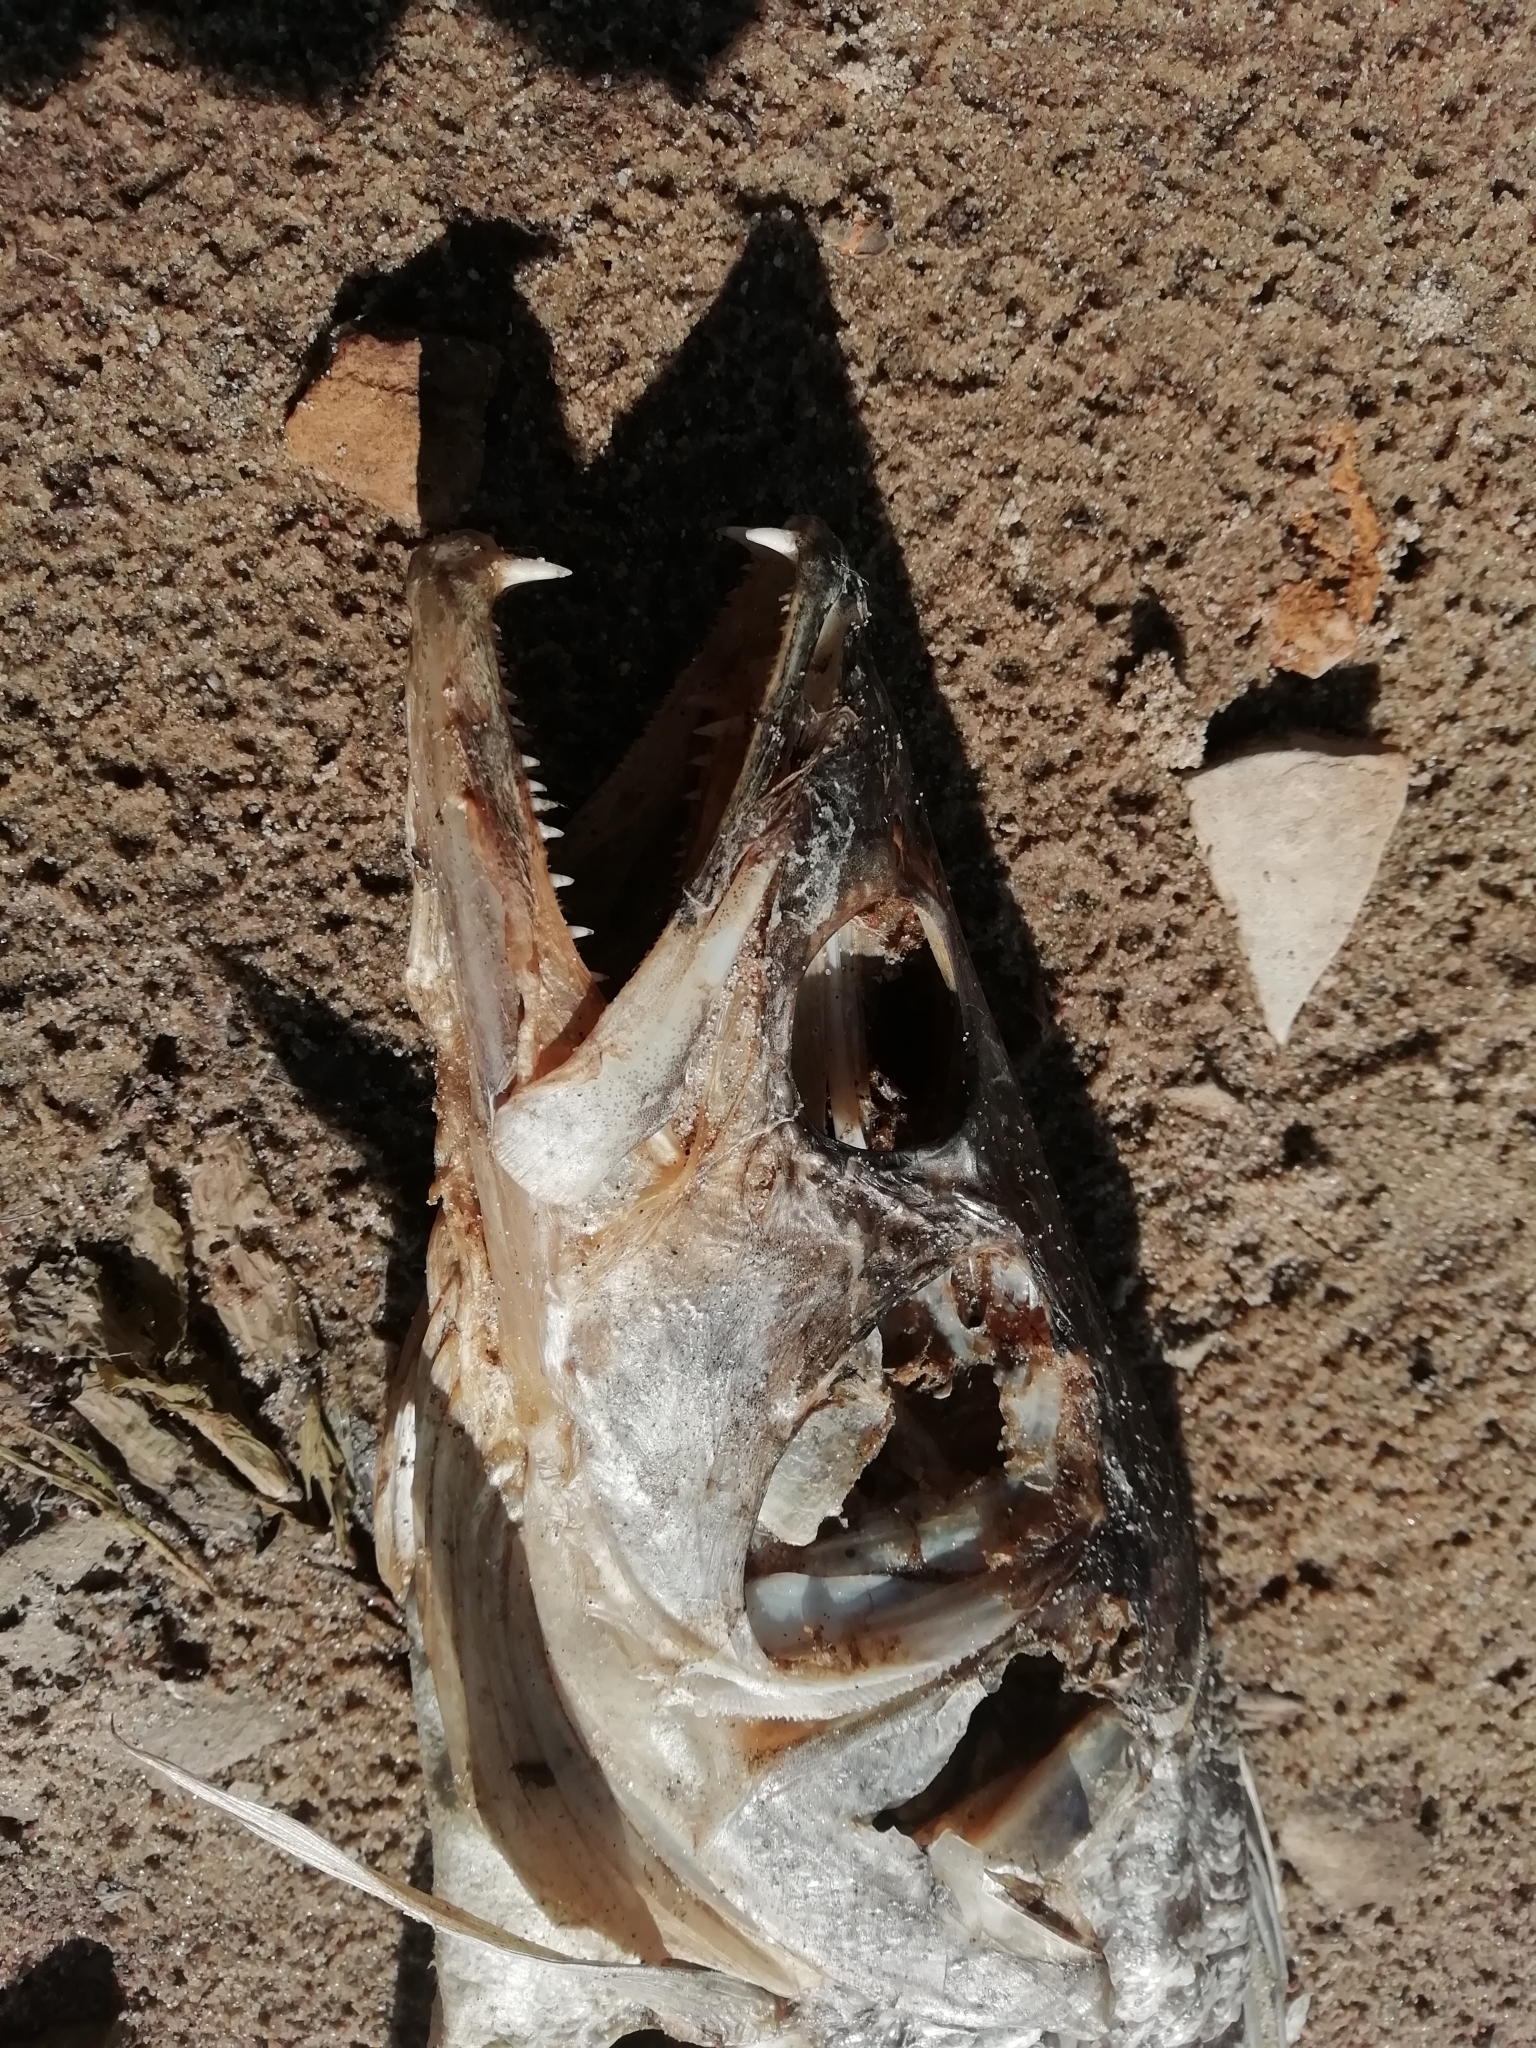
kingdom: Animalia
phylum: Chordata
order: Perciformes
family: Percidae
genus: Sander
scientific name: Sander lucioperca
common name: Pikeperch
